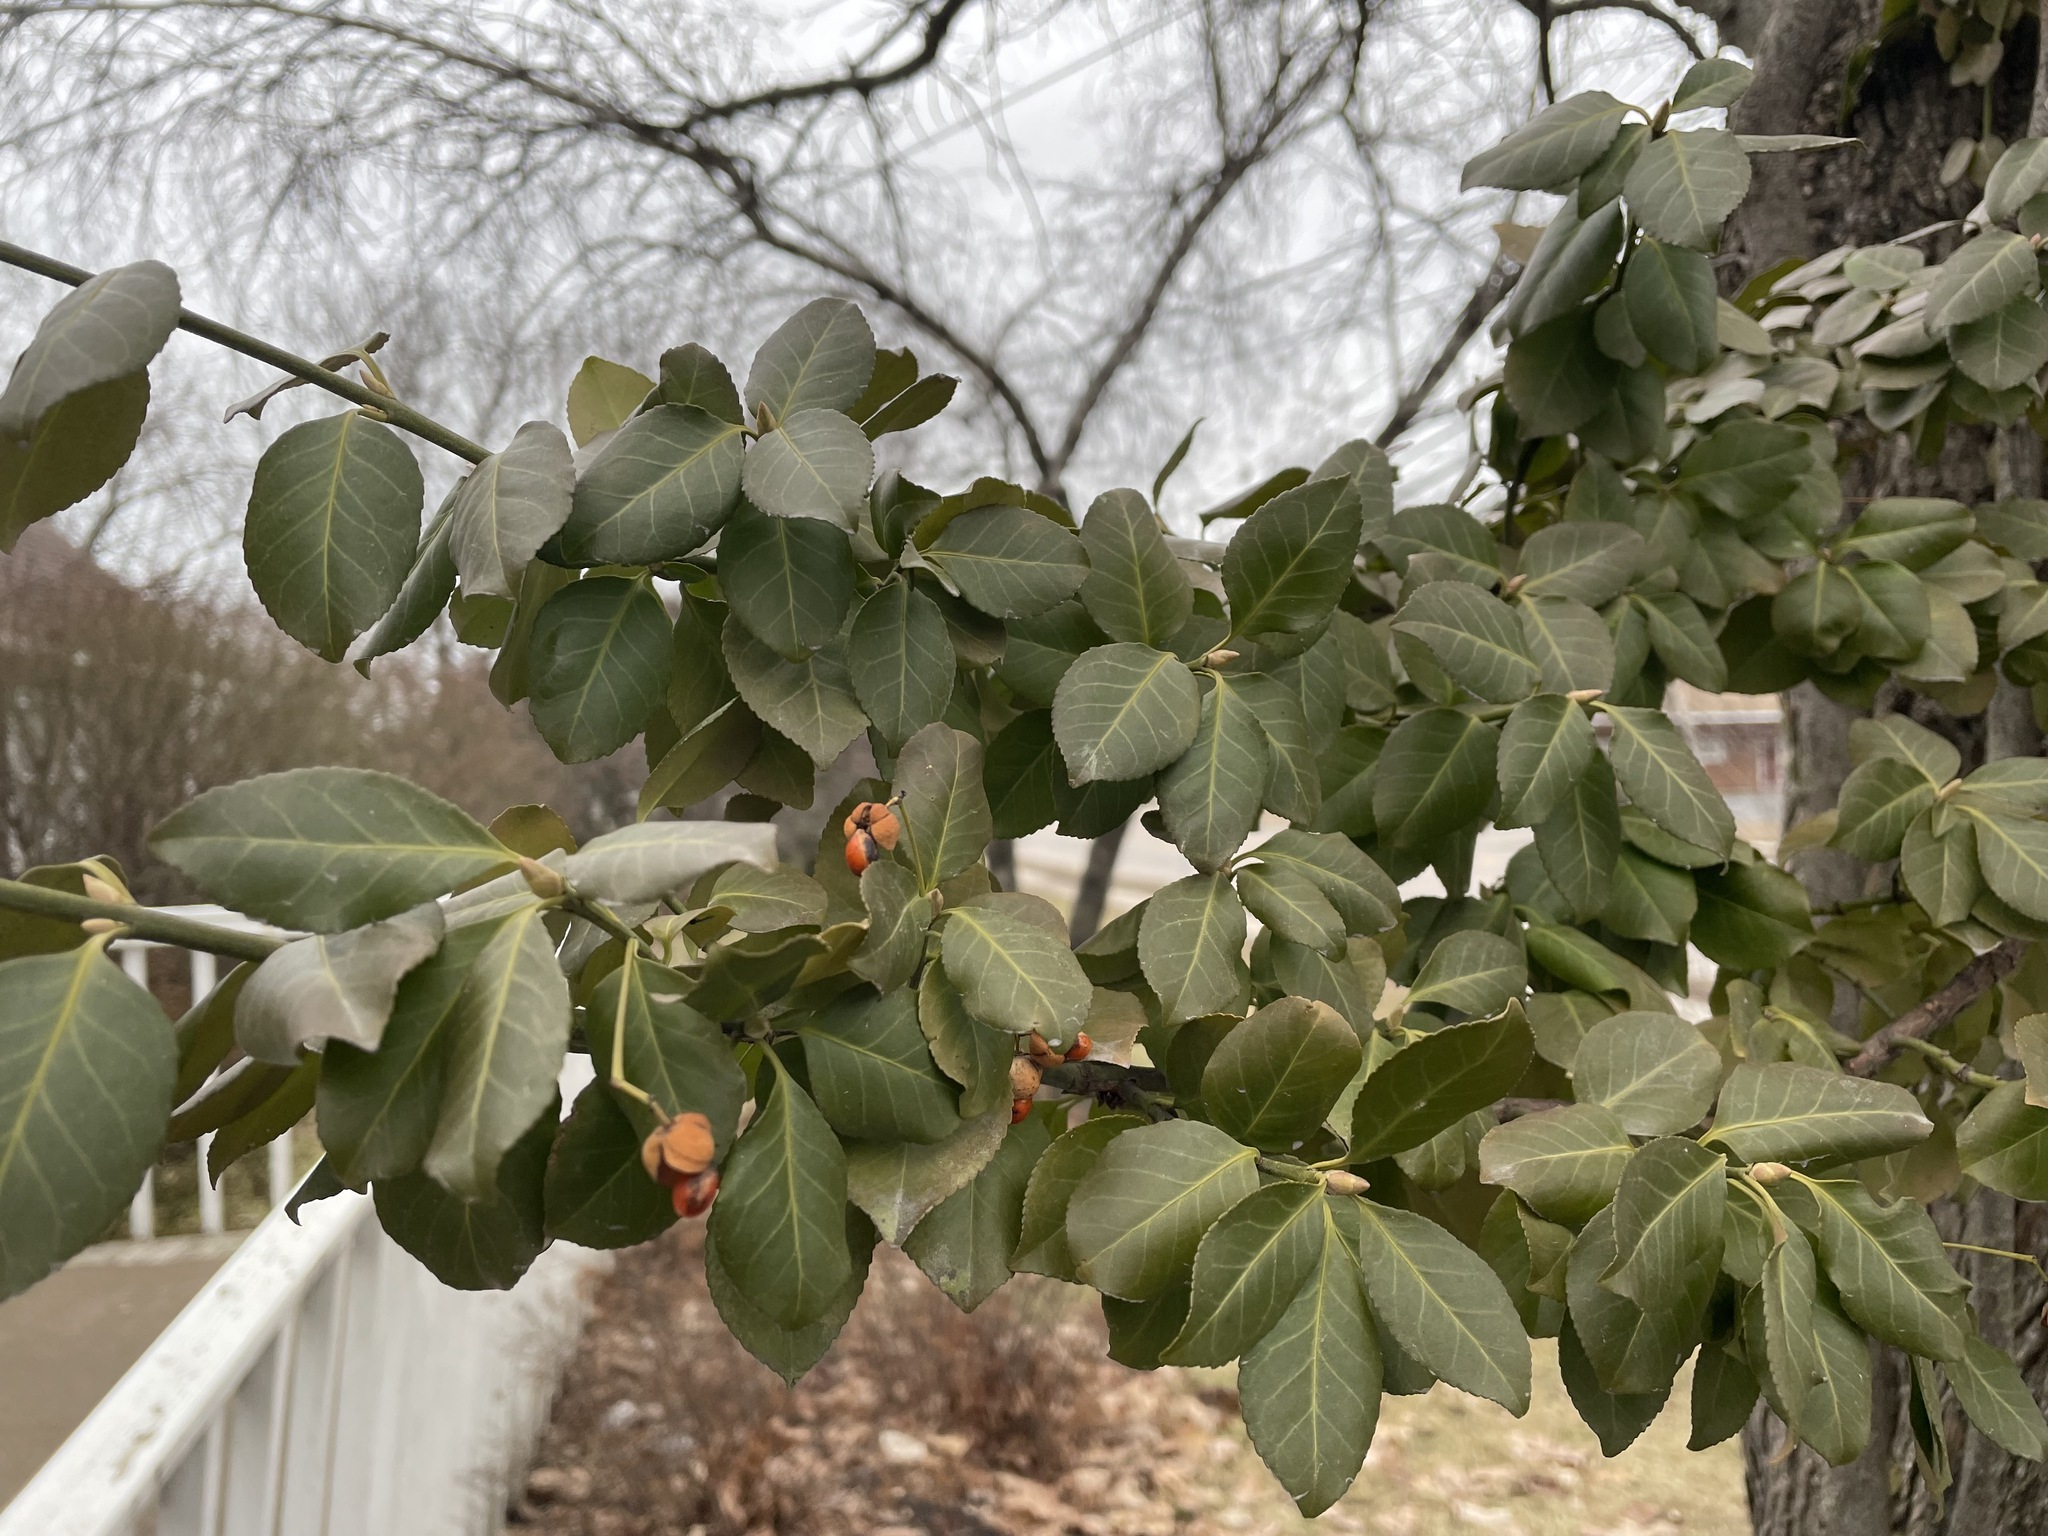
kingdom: Plantae
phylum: Tracheophyta
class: Magnoliopsida
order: Celastrales
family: Celastraceae
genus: Euonymus
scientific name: Euonymus fortunei
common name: Climbing euonymus
